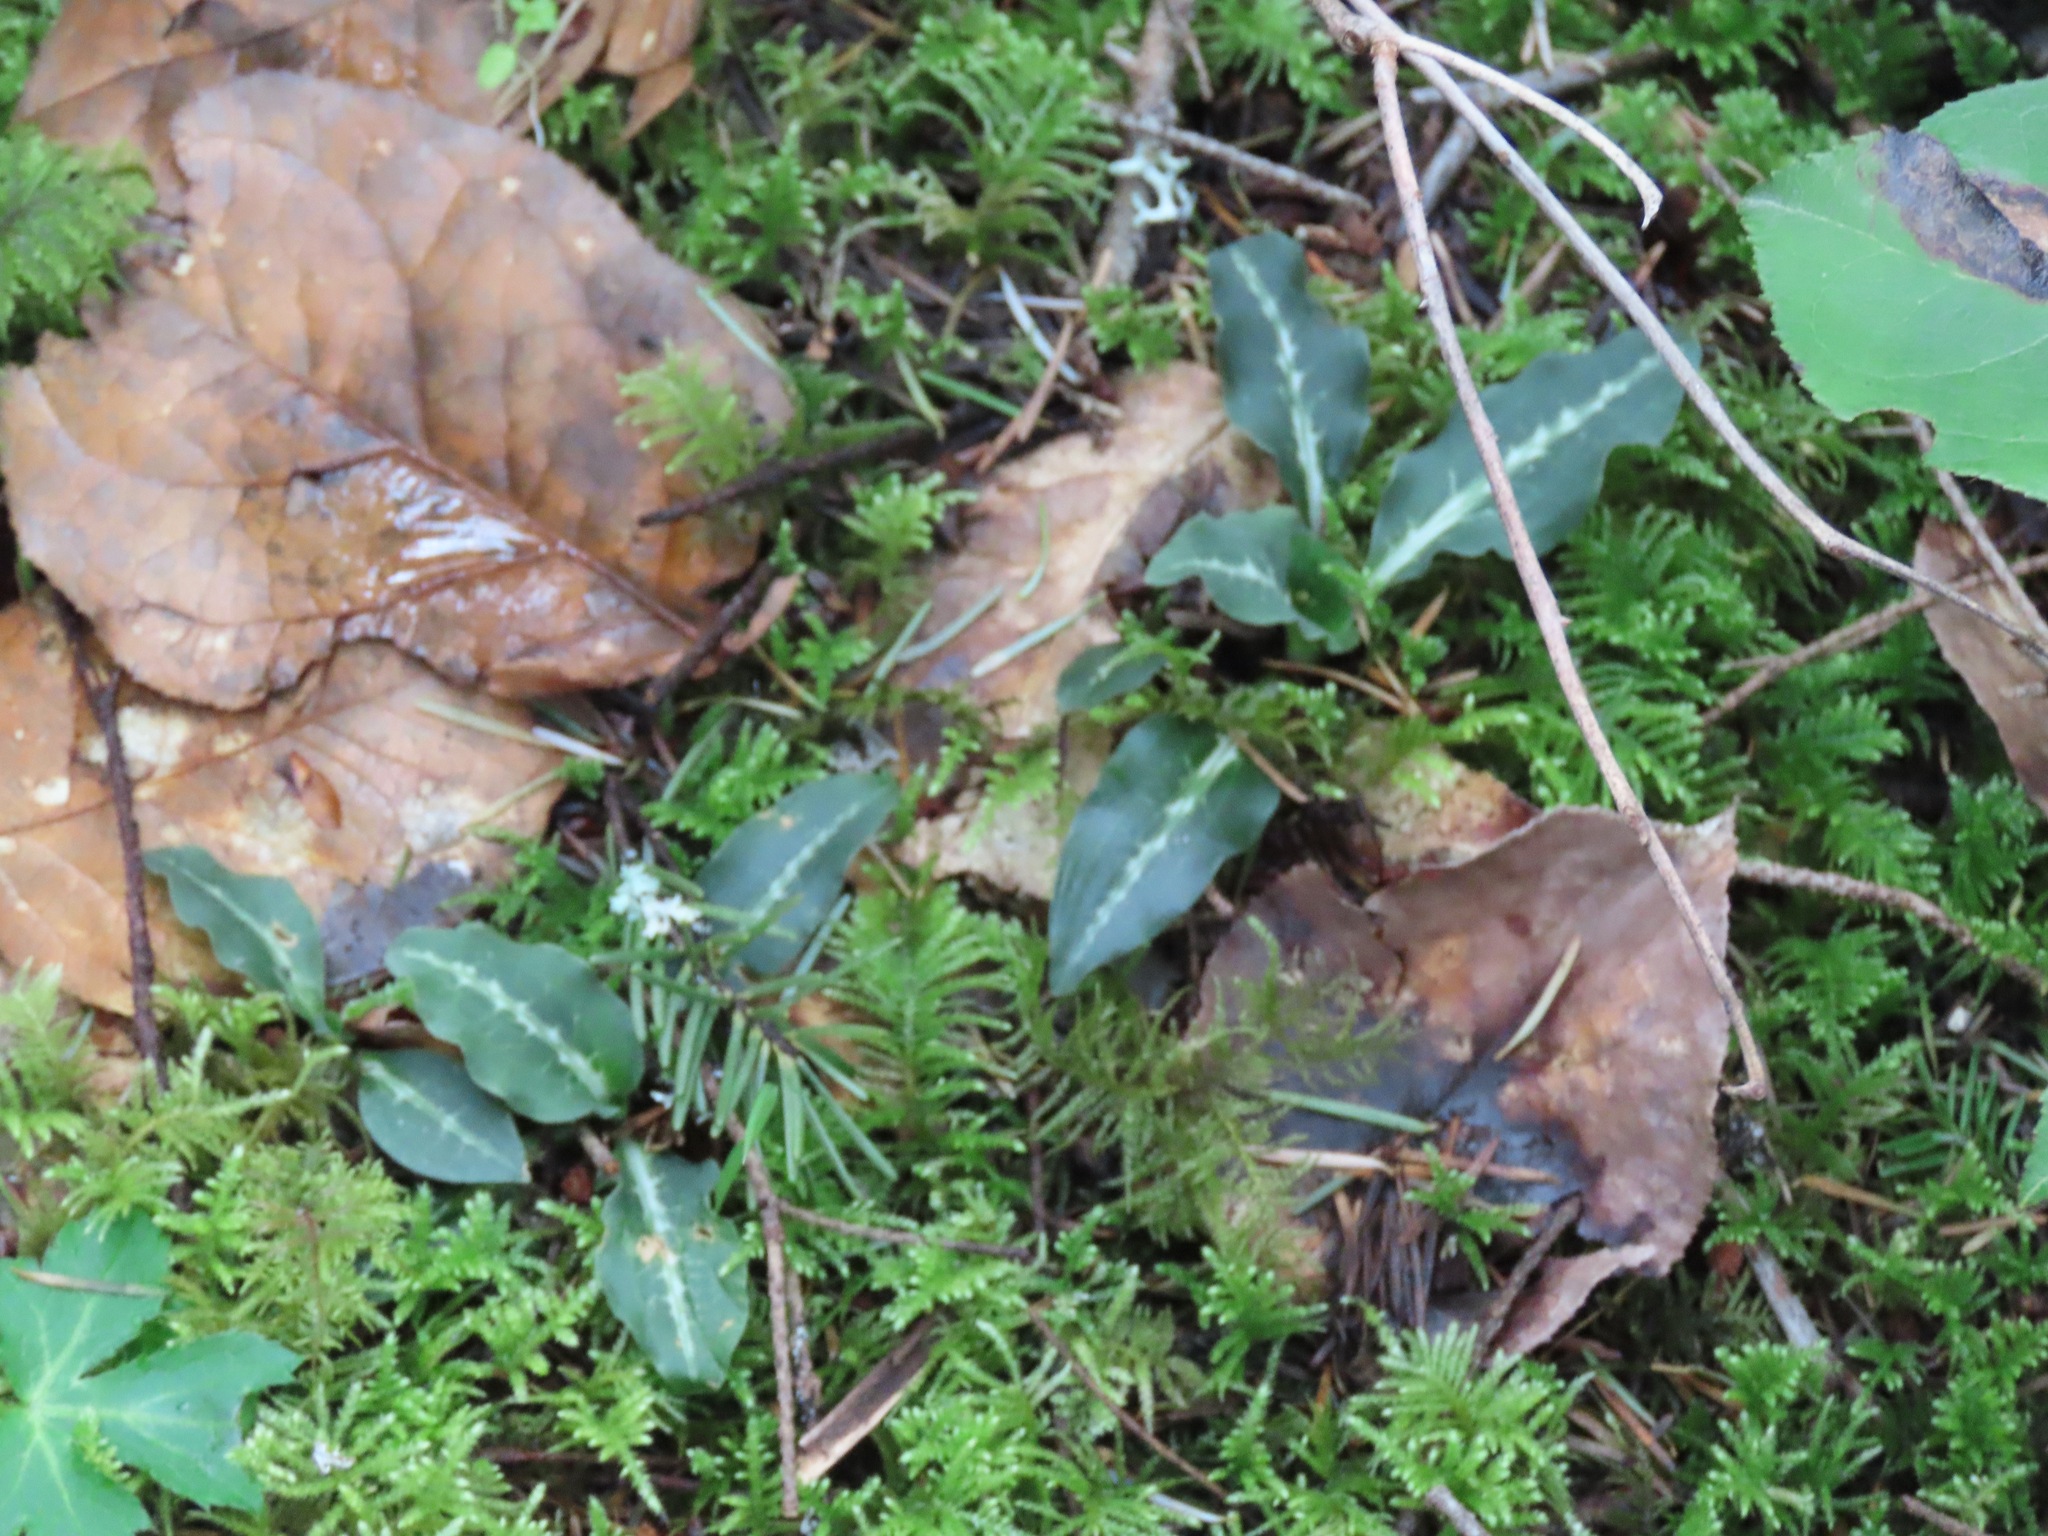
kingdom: Plantae
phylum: Tracheophyta
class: Liliopsida
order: Asparagales
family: Orchidaceae
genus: Goodyera
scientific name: Goodyera oblongifolia
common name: Giant rattlesnake-plantain
